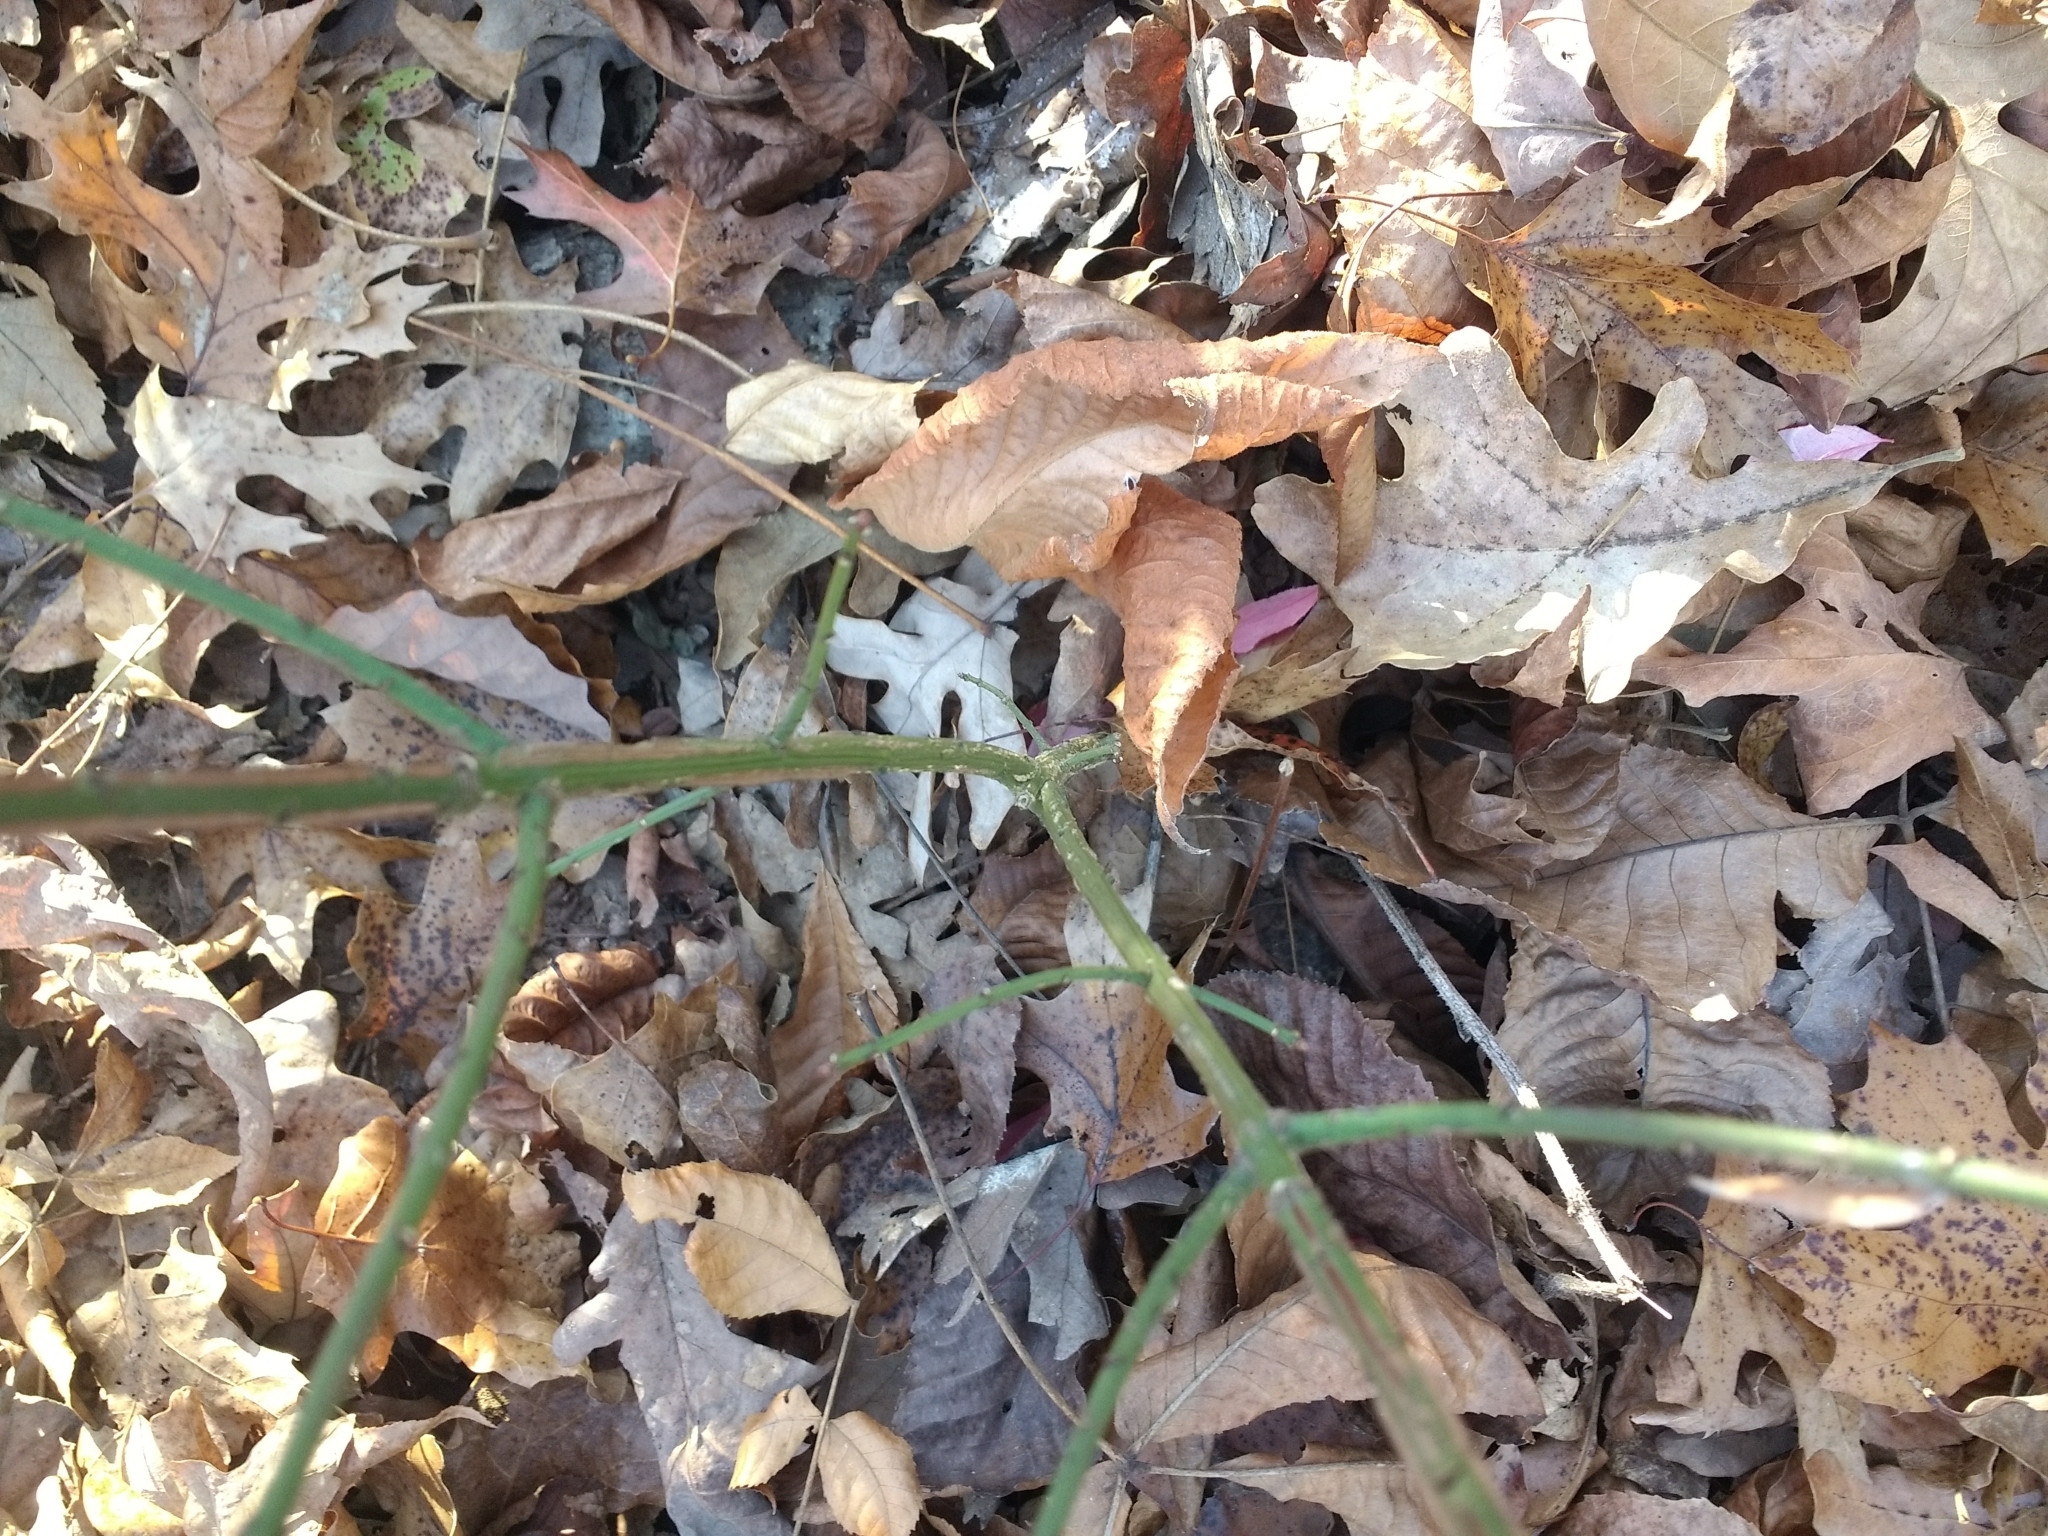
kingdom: Plantae
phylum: Tracheophyta
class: Magnoliopsida
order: Celastrales
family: Celastraceae
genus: Euonymus
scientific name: Euonymus alatus
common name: Winged euonymus
